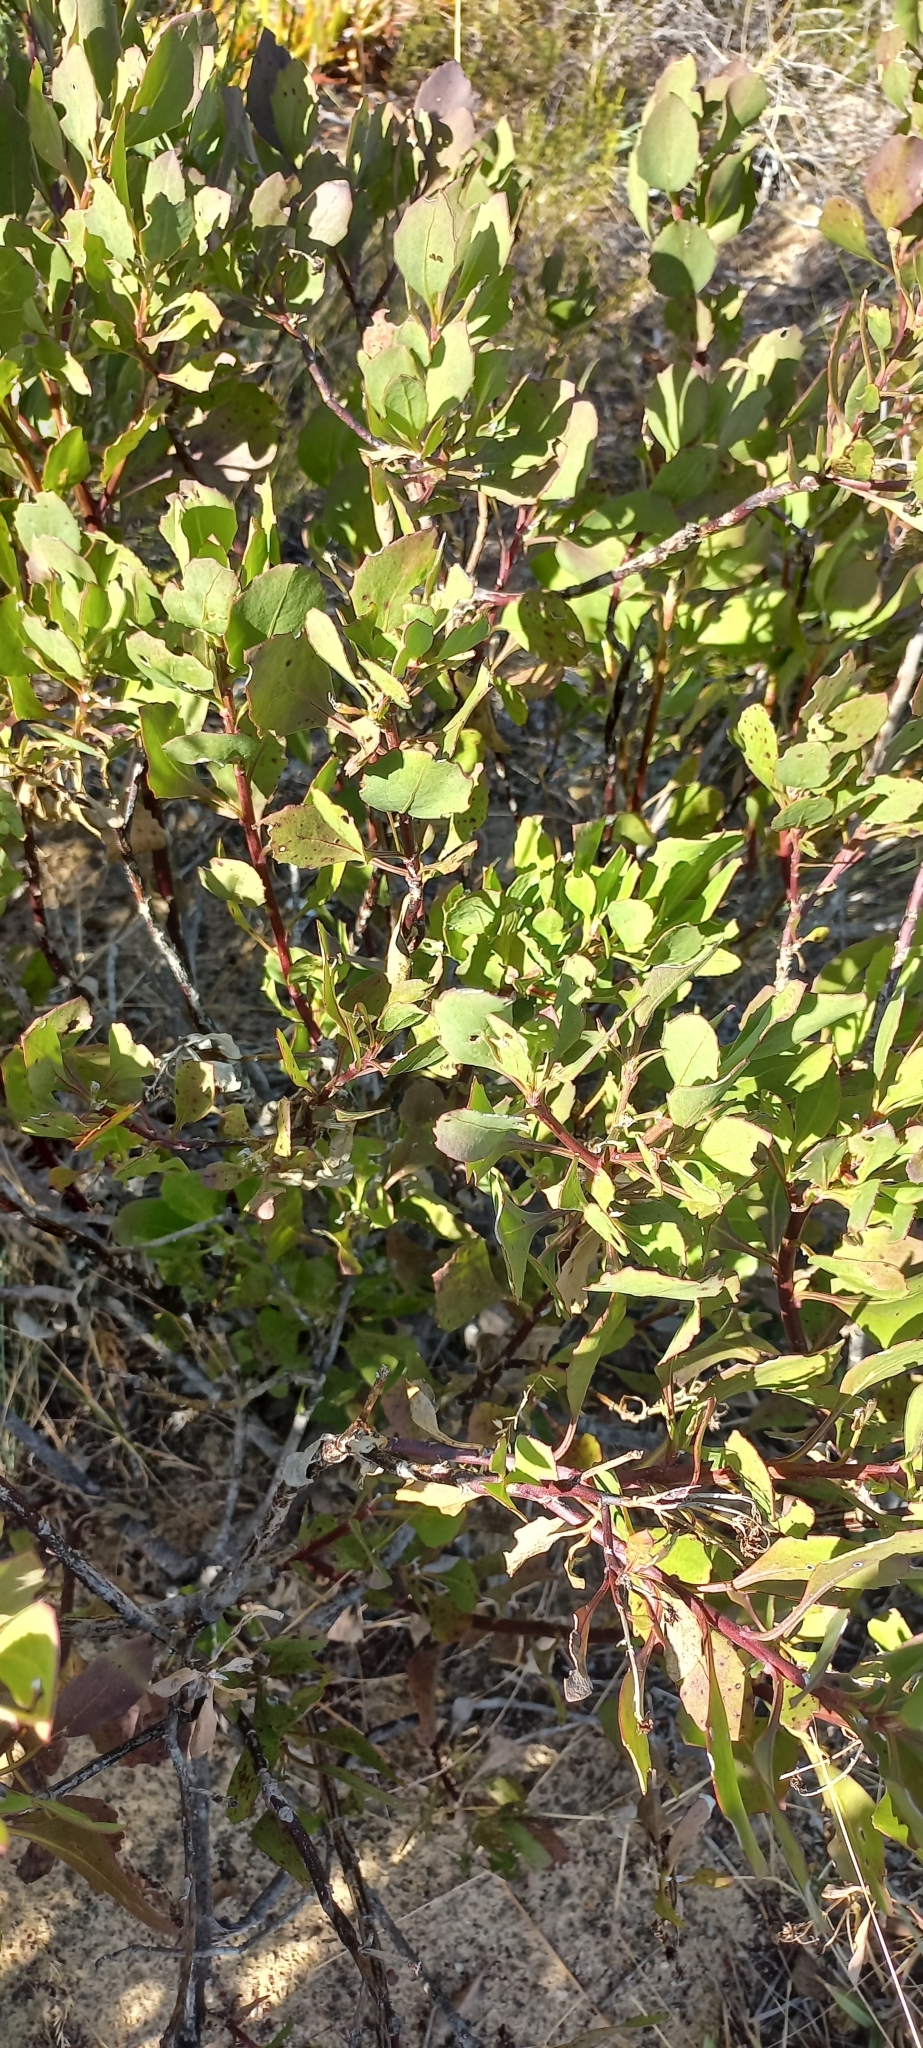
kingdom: Plantae
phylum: Tracheophyta
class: Magnoliopsida
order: Asterales
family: Asteraceae
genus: Osteospermum
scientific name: Osteospermum moniliferum
